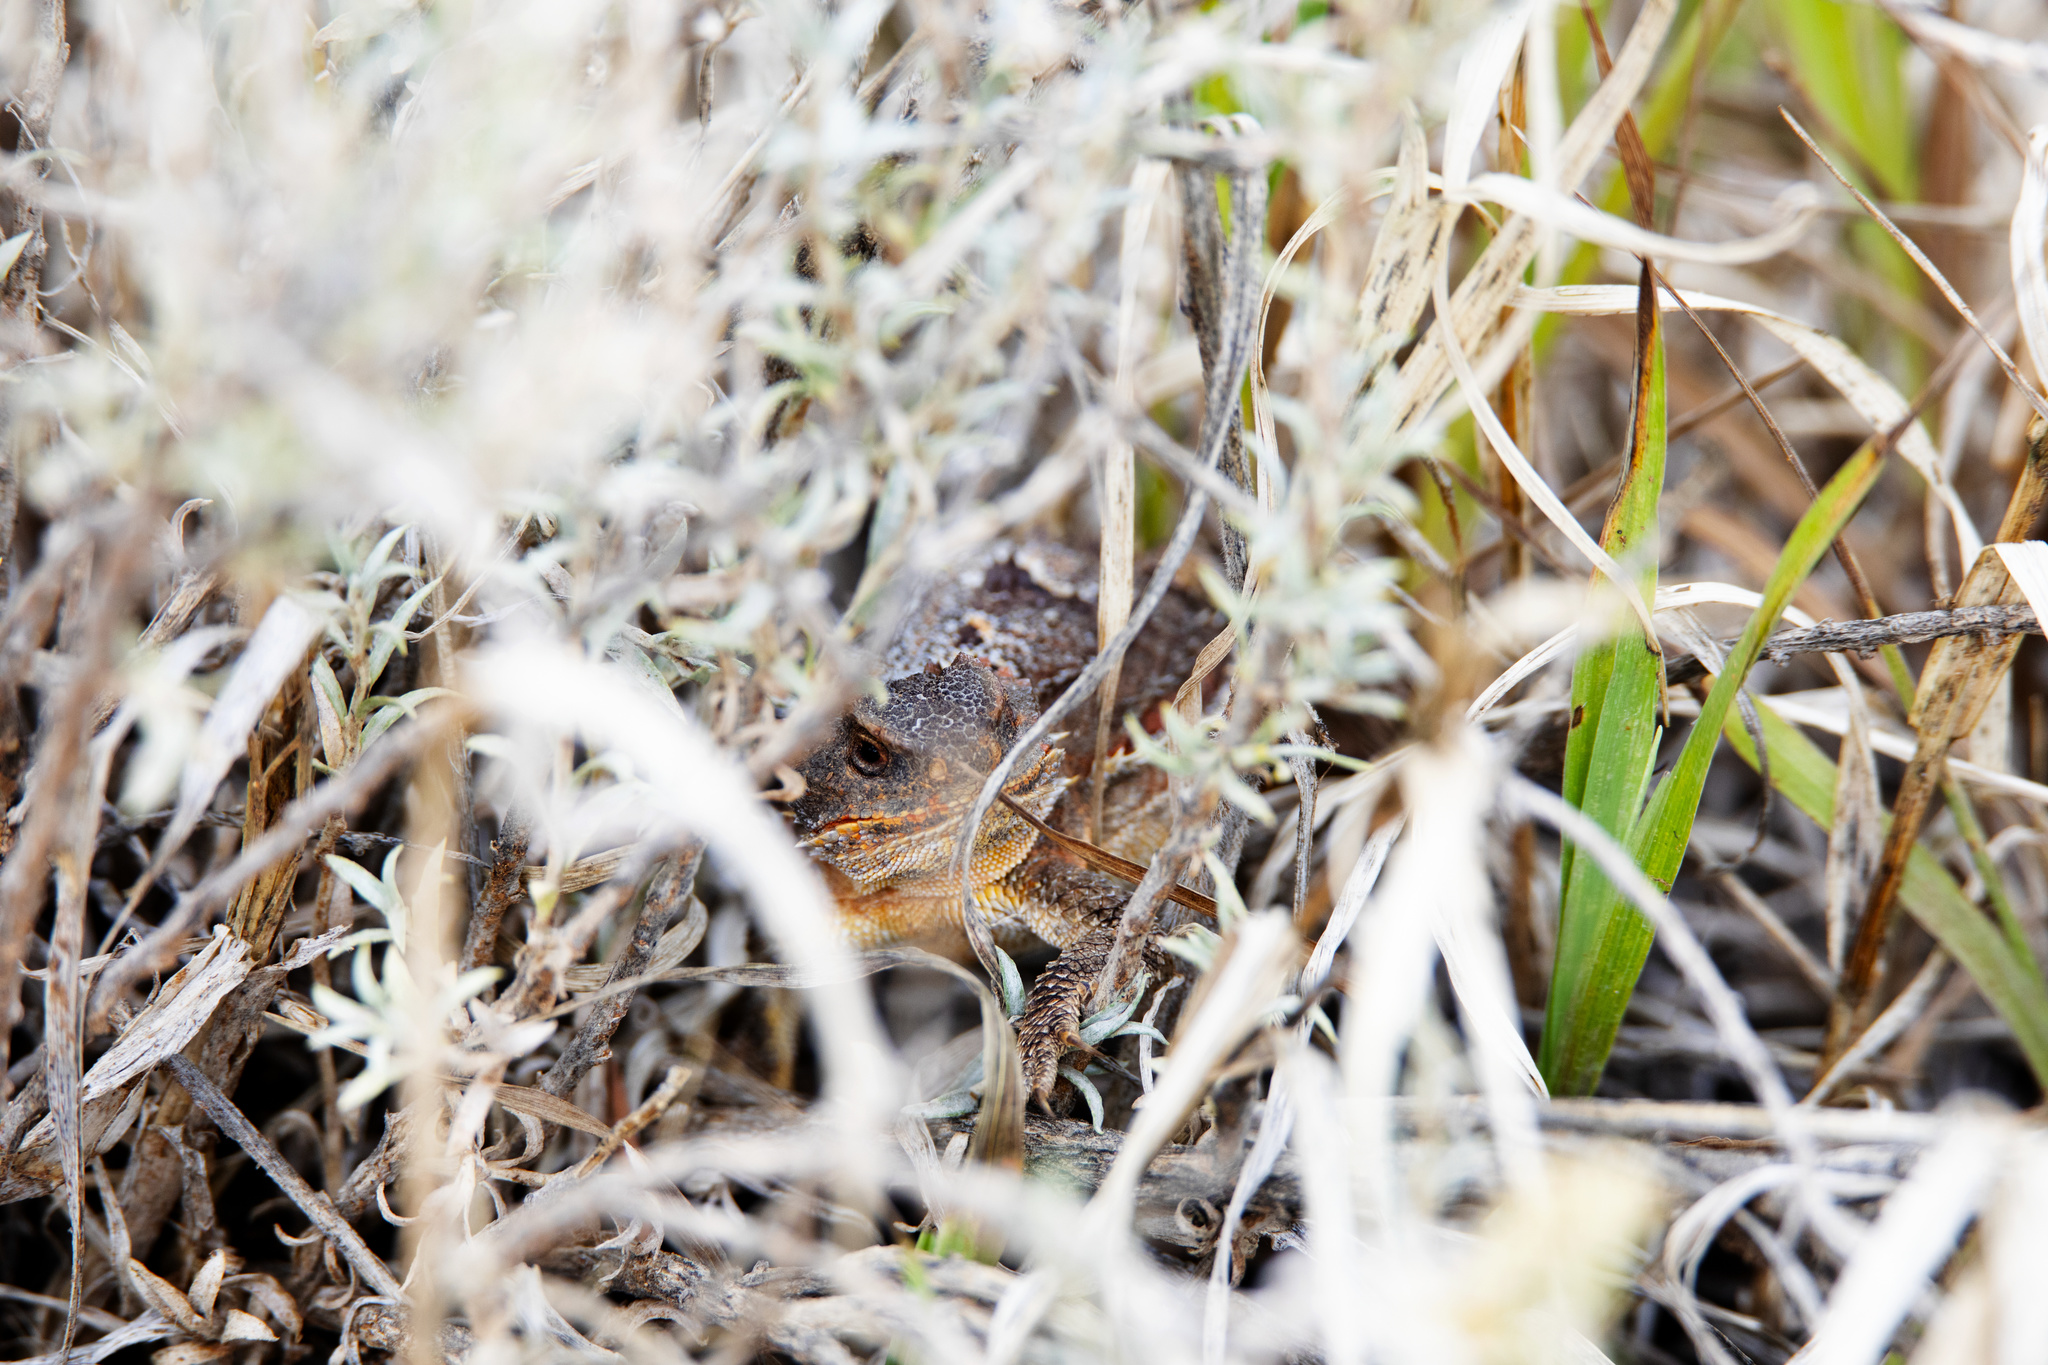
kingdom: Animalia
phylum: Chordata
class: Squamata
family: Phrynosomatidae
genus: Phrynosoma
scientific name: Phrynosoma hernandesi
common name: Greater short-horned lizard
